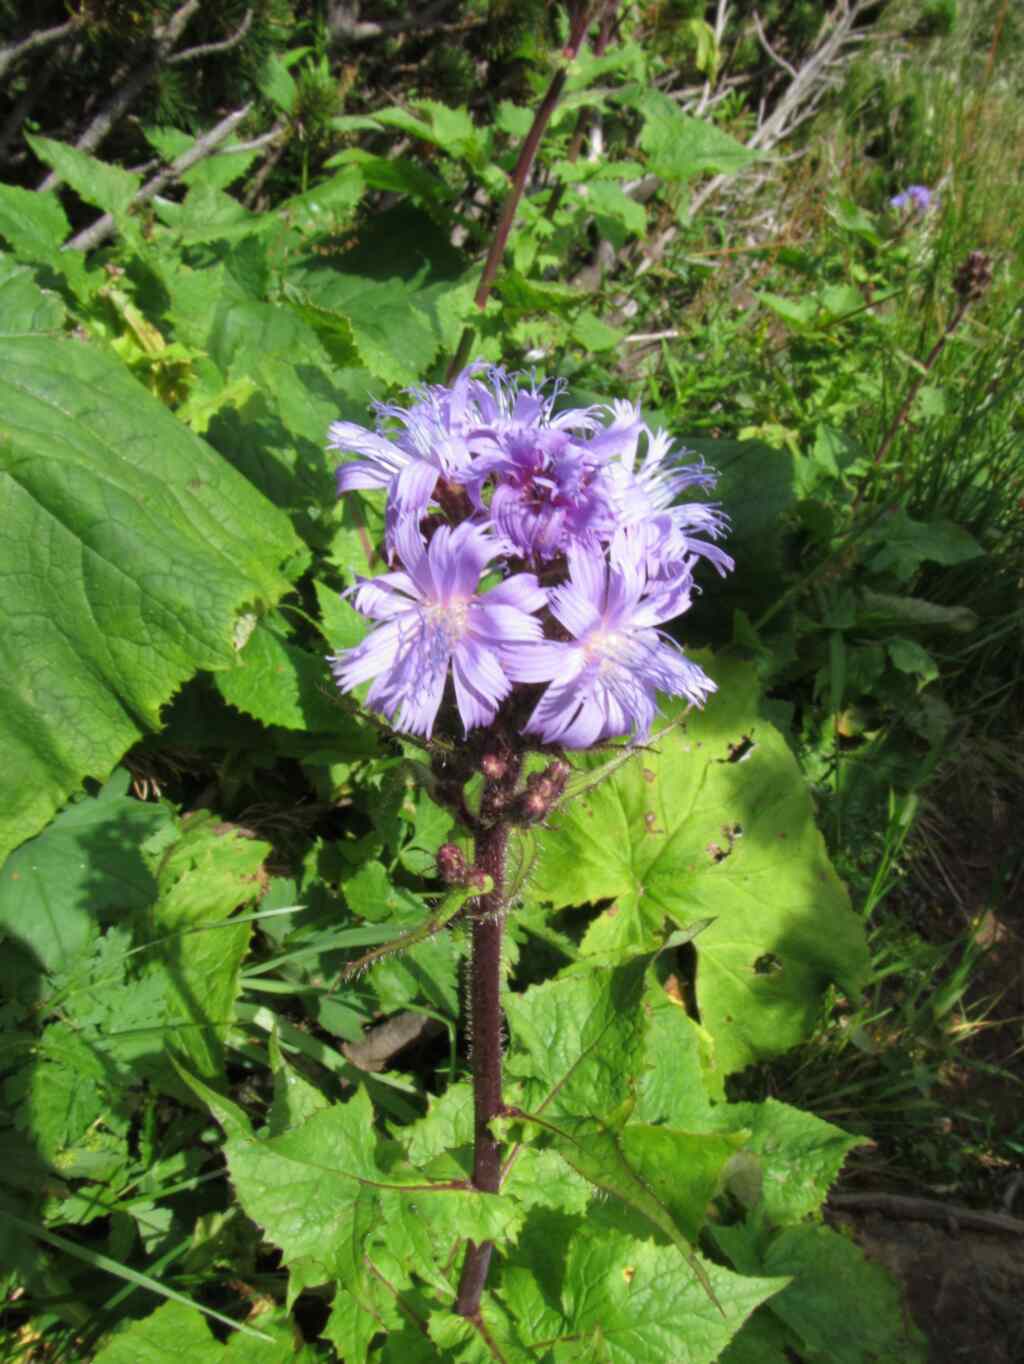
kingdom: Plantae
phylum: Tracheophyta
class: Magnoliopsida
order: Asterales
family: Asteraceae
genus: Cicerbita
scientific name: Cicerbita alpina
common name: Alpine blue-sow-thistle
